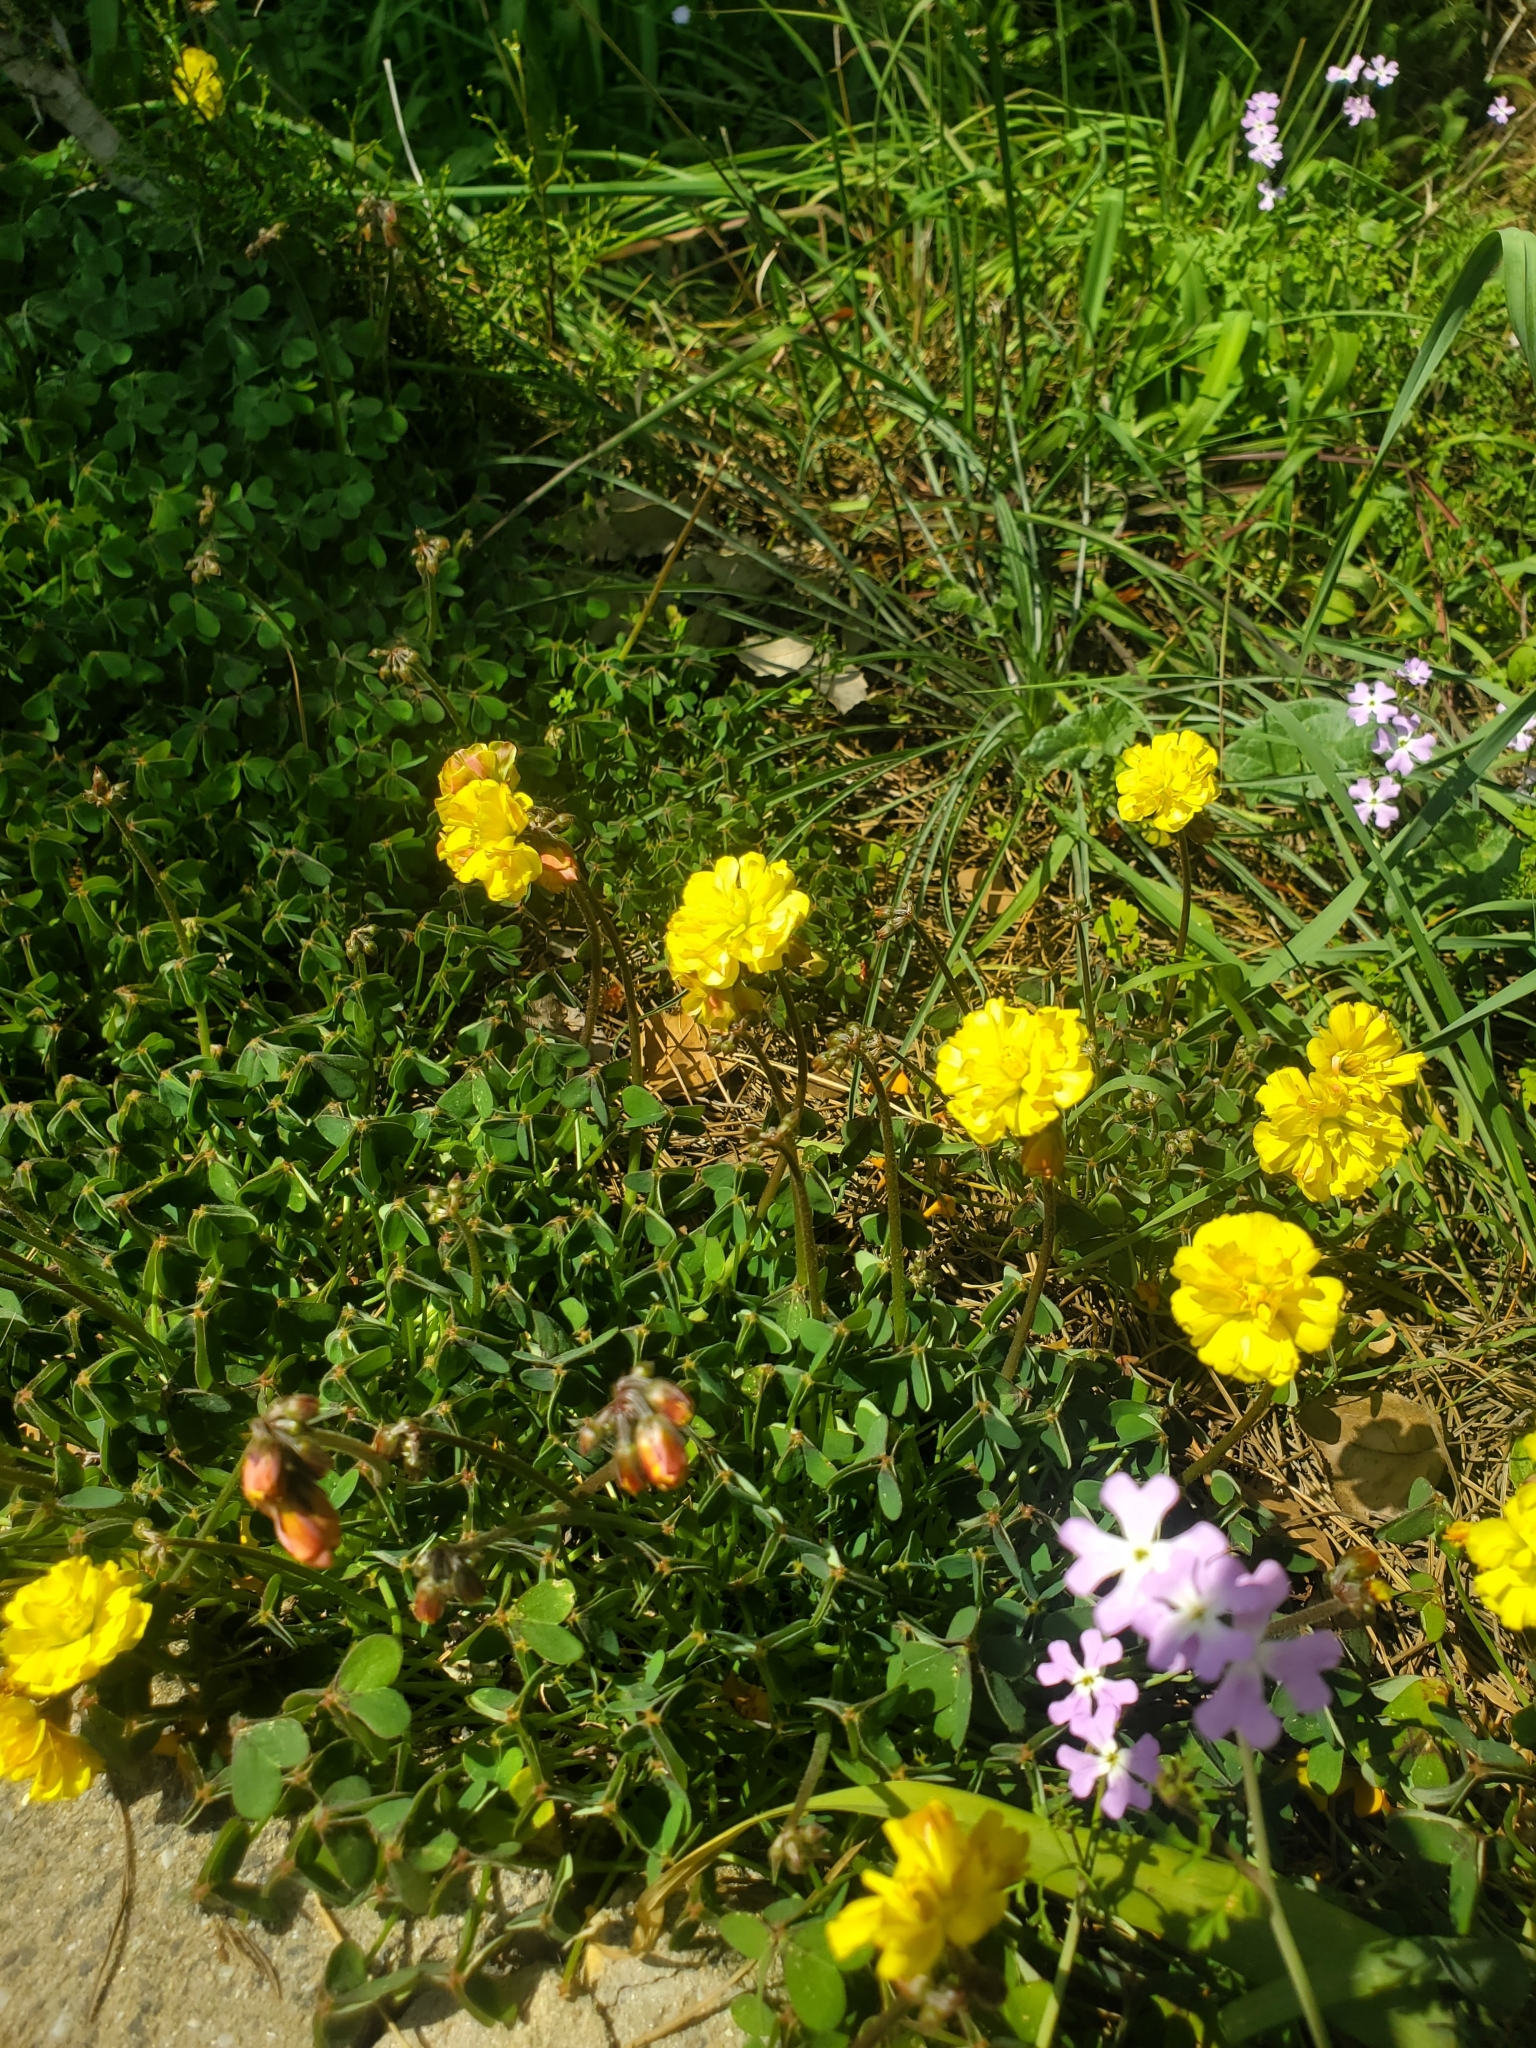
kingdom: Plantae
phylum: Tracheophyta
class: Magnoliopsida
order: Oxalidales
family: Oxalidaceae
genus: Oxalis
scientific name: Oxalis pes-caprae
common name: Bermuda-buttercup
